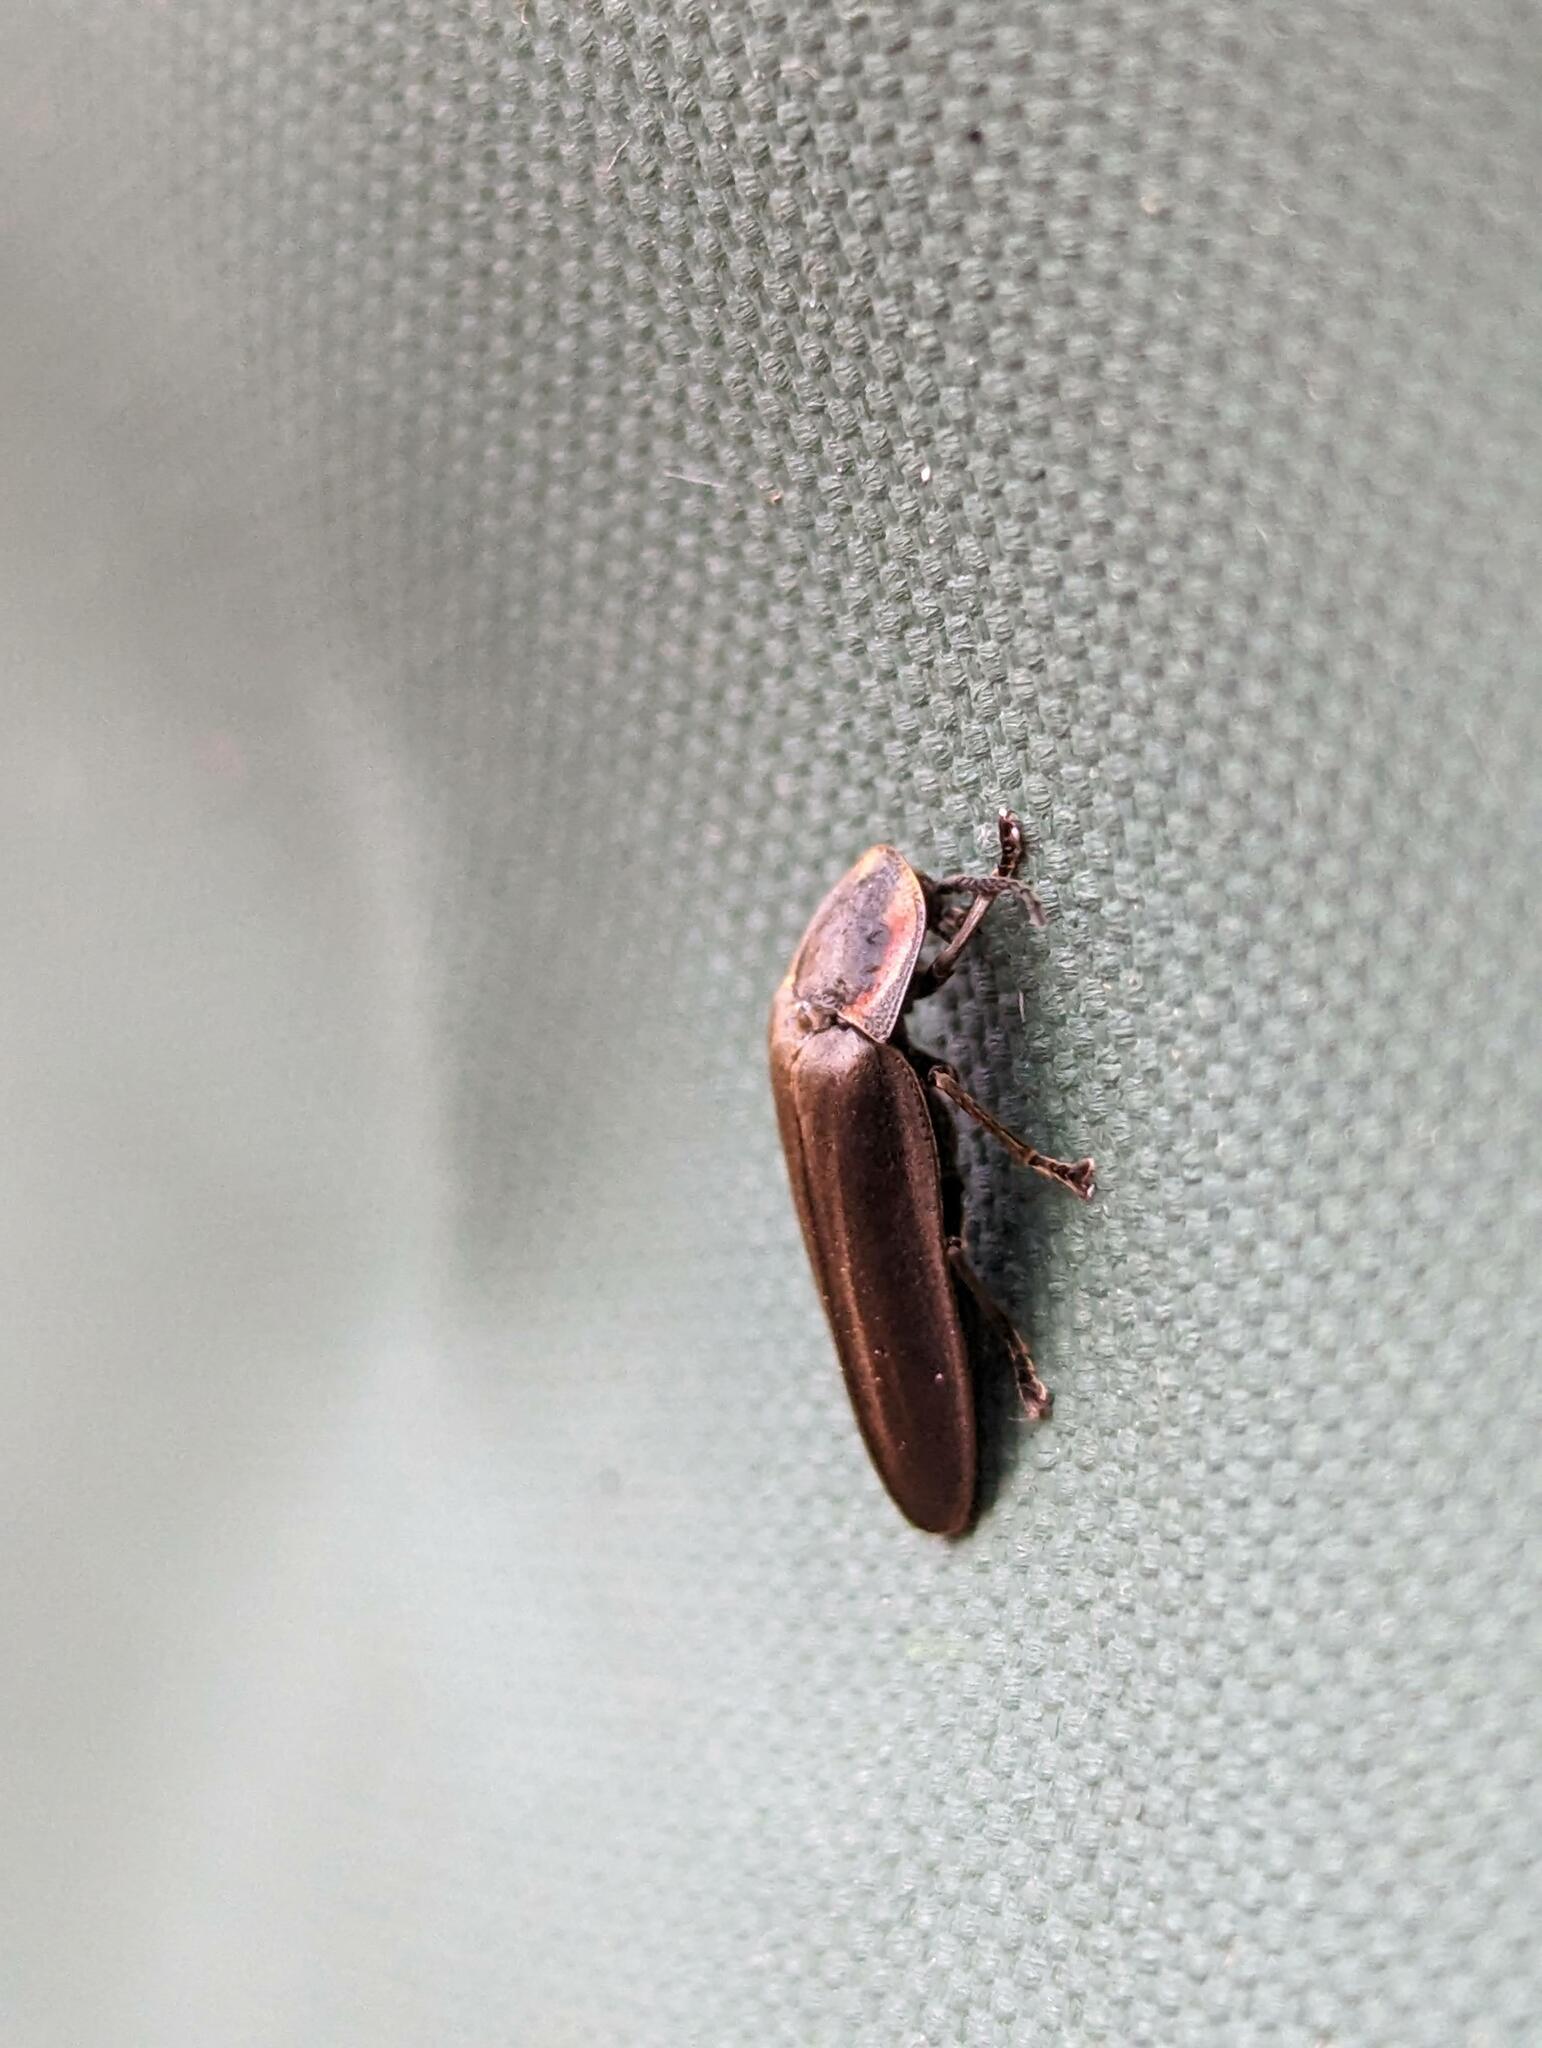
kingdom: Animalia
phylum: Arthropoda
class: Insecta
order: Coleoptera
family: Lampyridae
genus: Photinus
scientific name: Photinus corrusca
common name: Winter firefly
